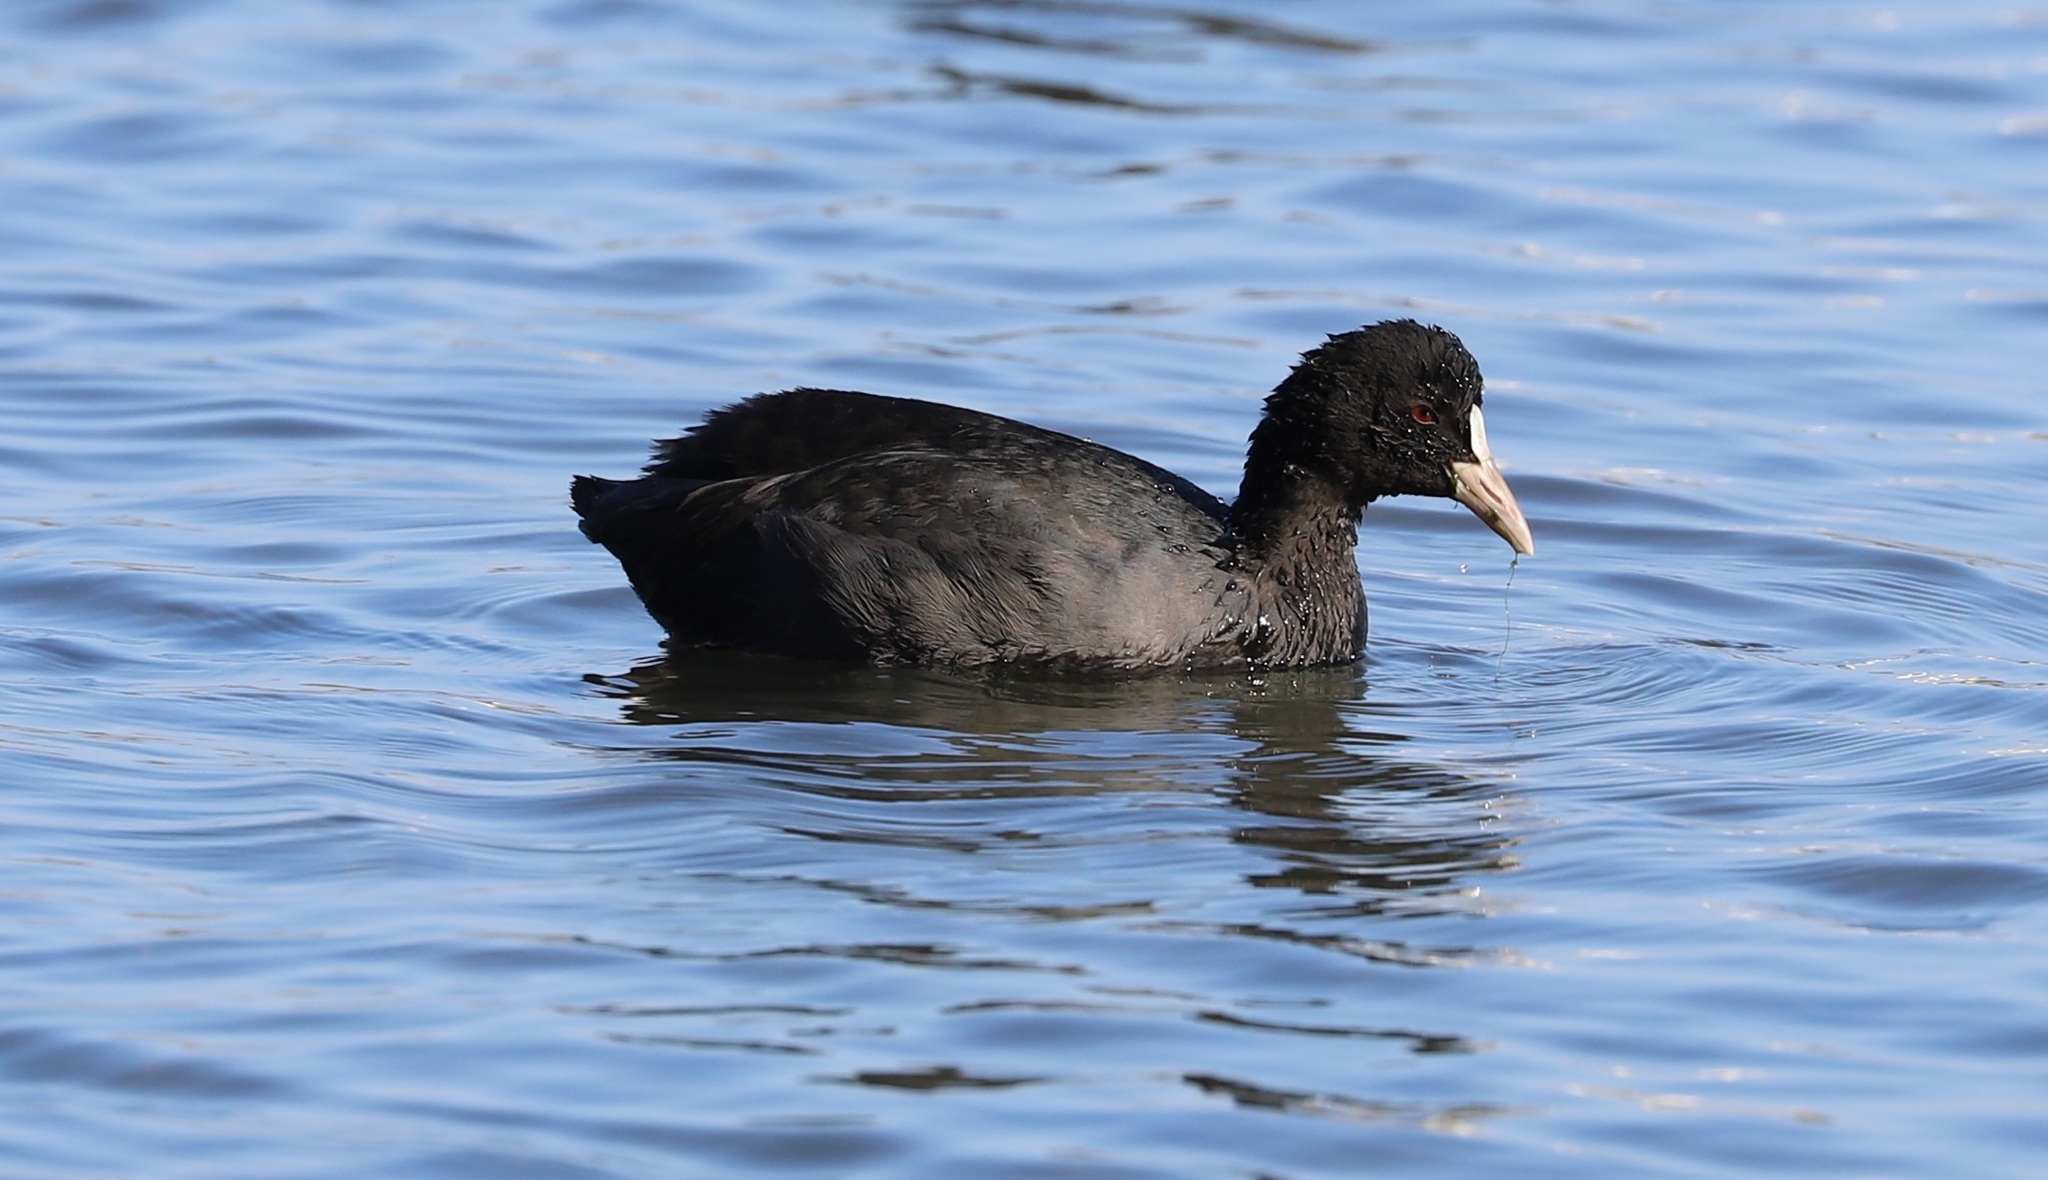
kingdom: Animalia
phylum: Chordata
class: Aves
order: Gruiformes
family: Rallidae
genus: Fulica
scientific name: Fulica atra
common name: Eurasian coot
